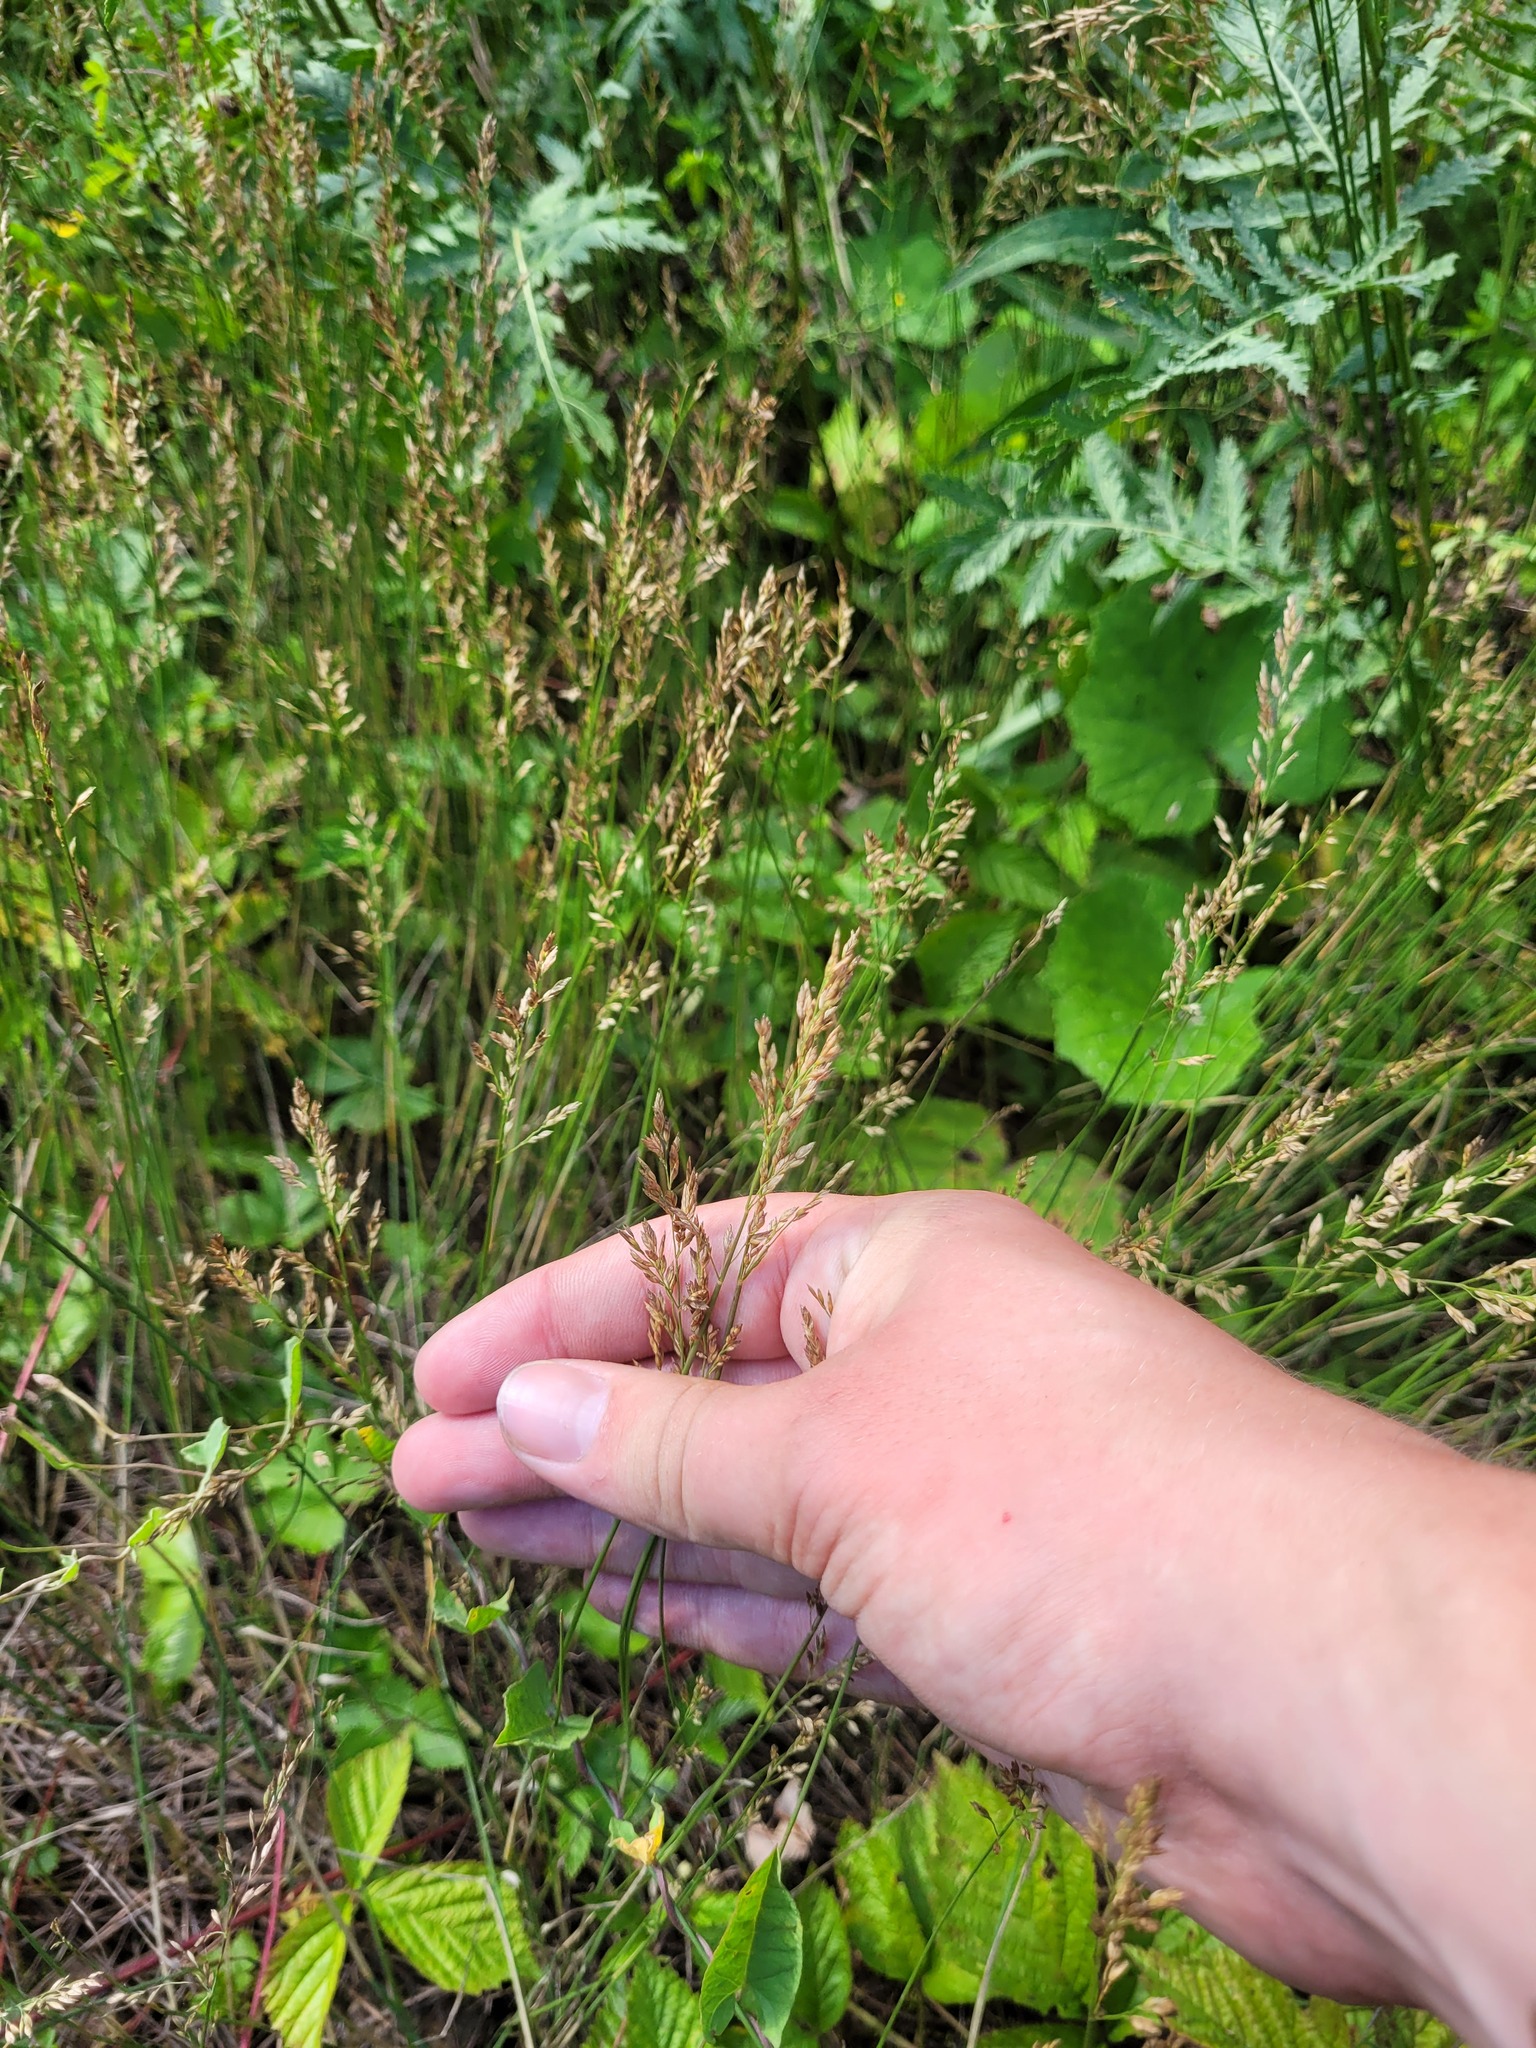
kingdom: Plantae
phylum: Tracheophyta
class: Liliopsida
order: Poales
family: Poaceae
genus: Poa
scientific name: Poa compressa
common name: Canada bluegrass
